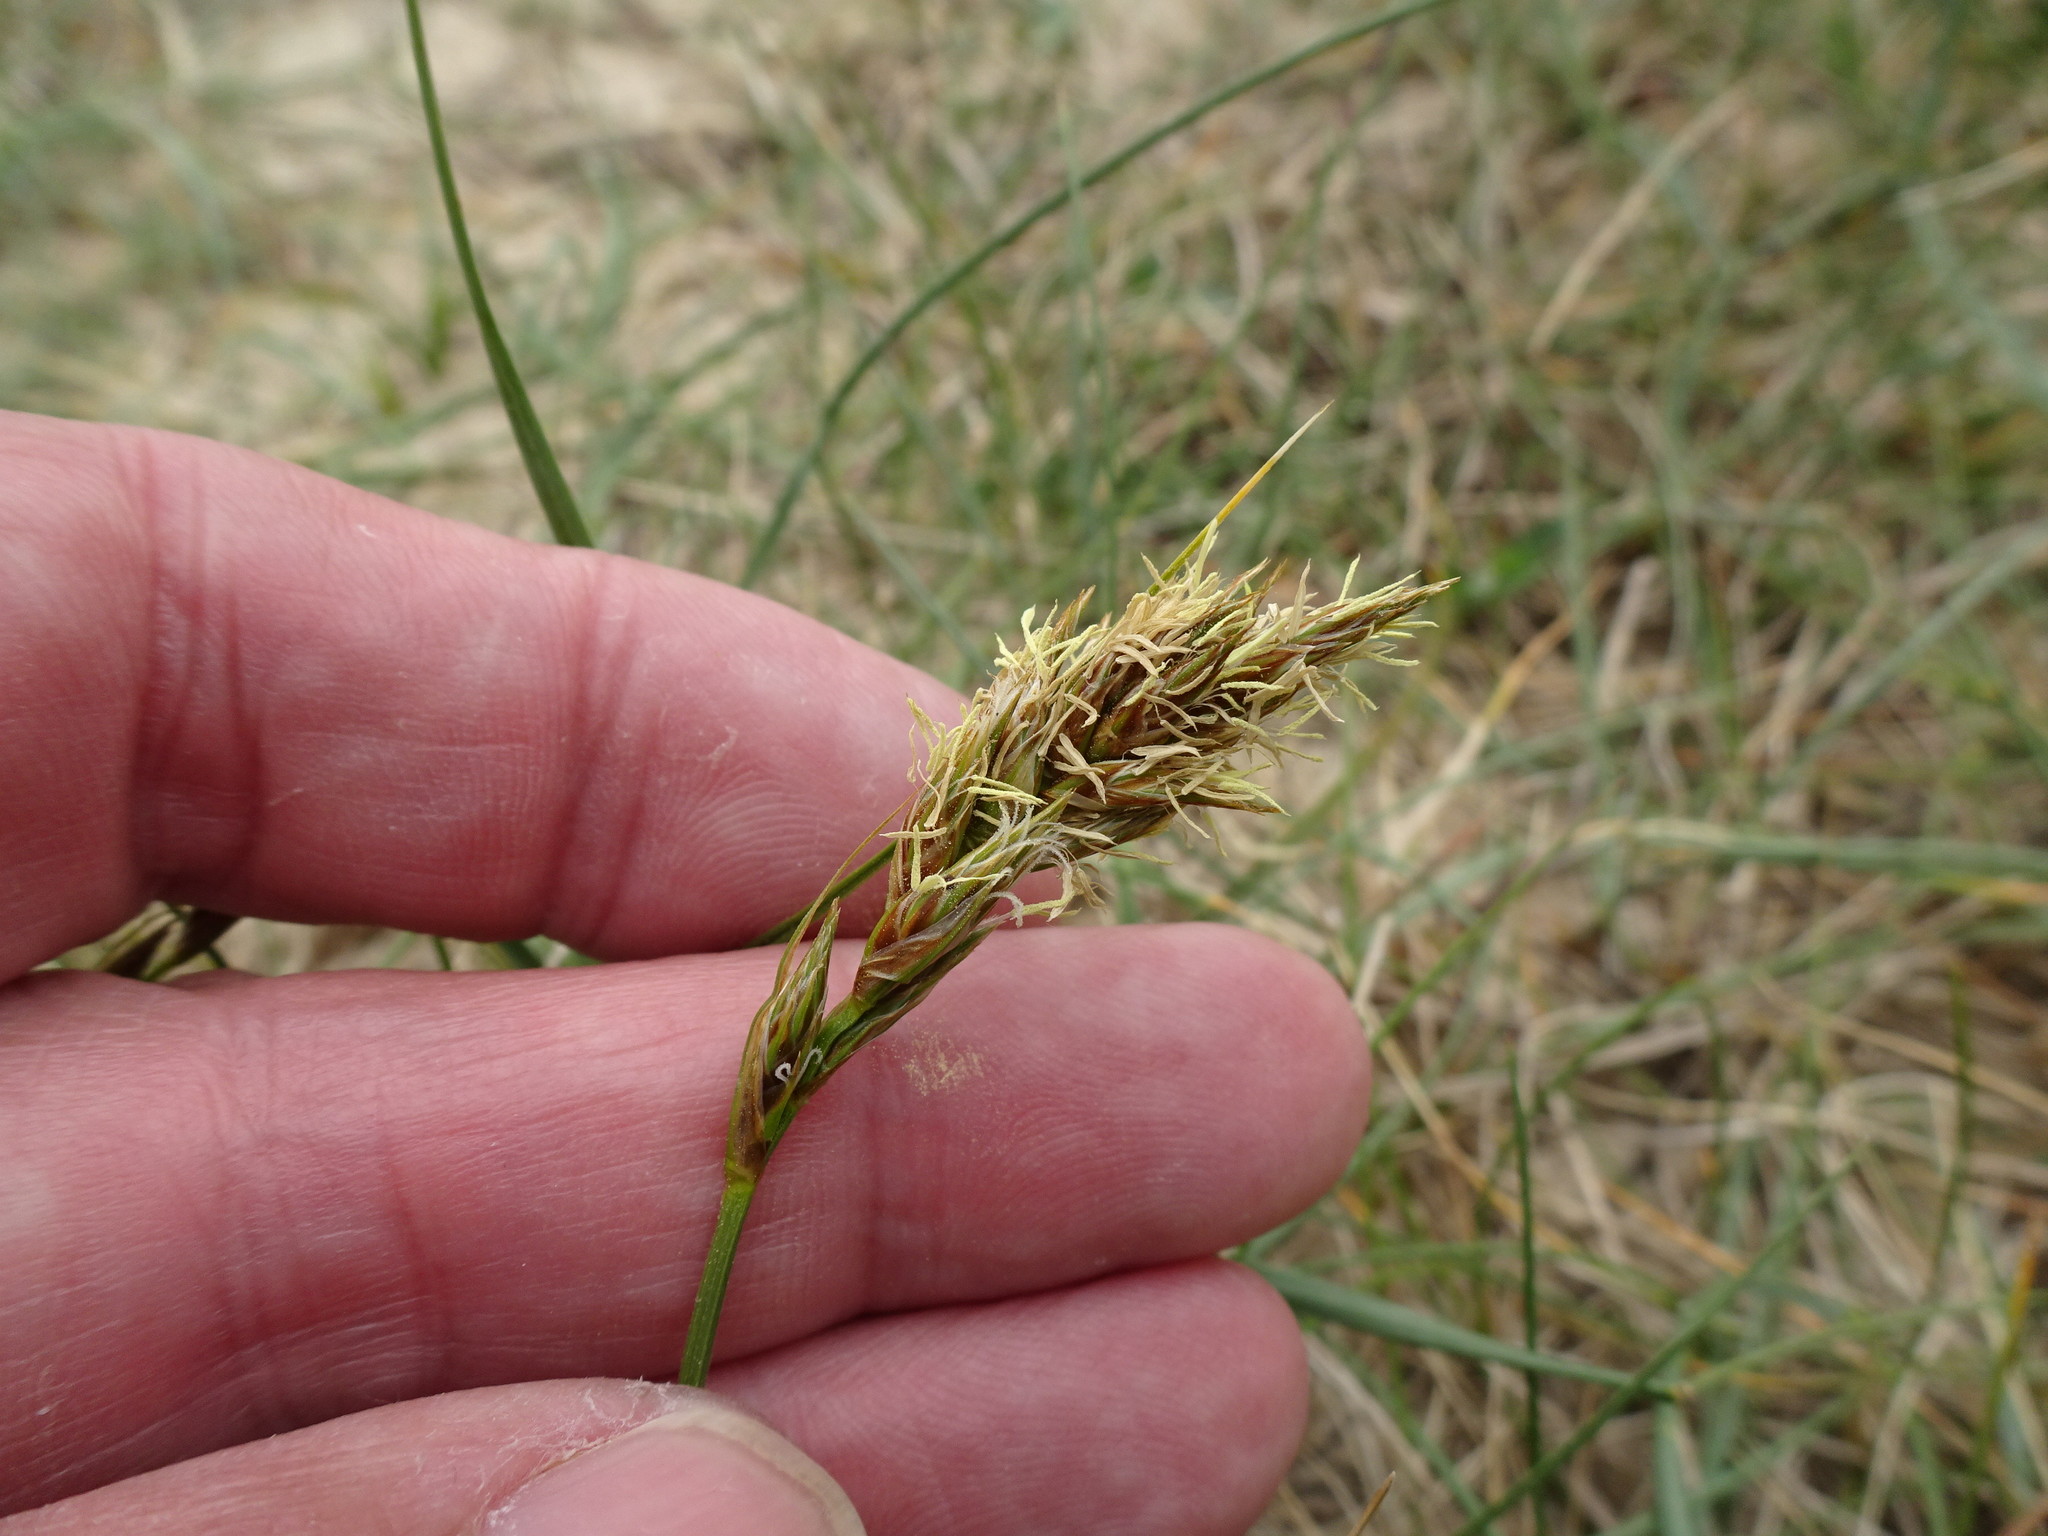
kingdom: Plantae
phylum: Tracheophyta
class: Liliopsida
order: Poales
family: Cyperaceae
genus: Carex
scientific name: Carex arenaria
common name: Sand sedge
